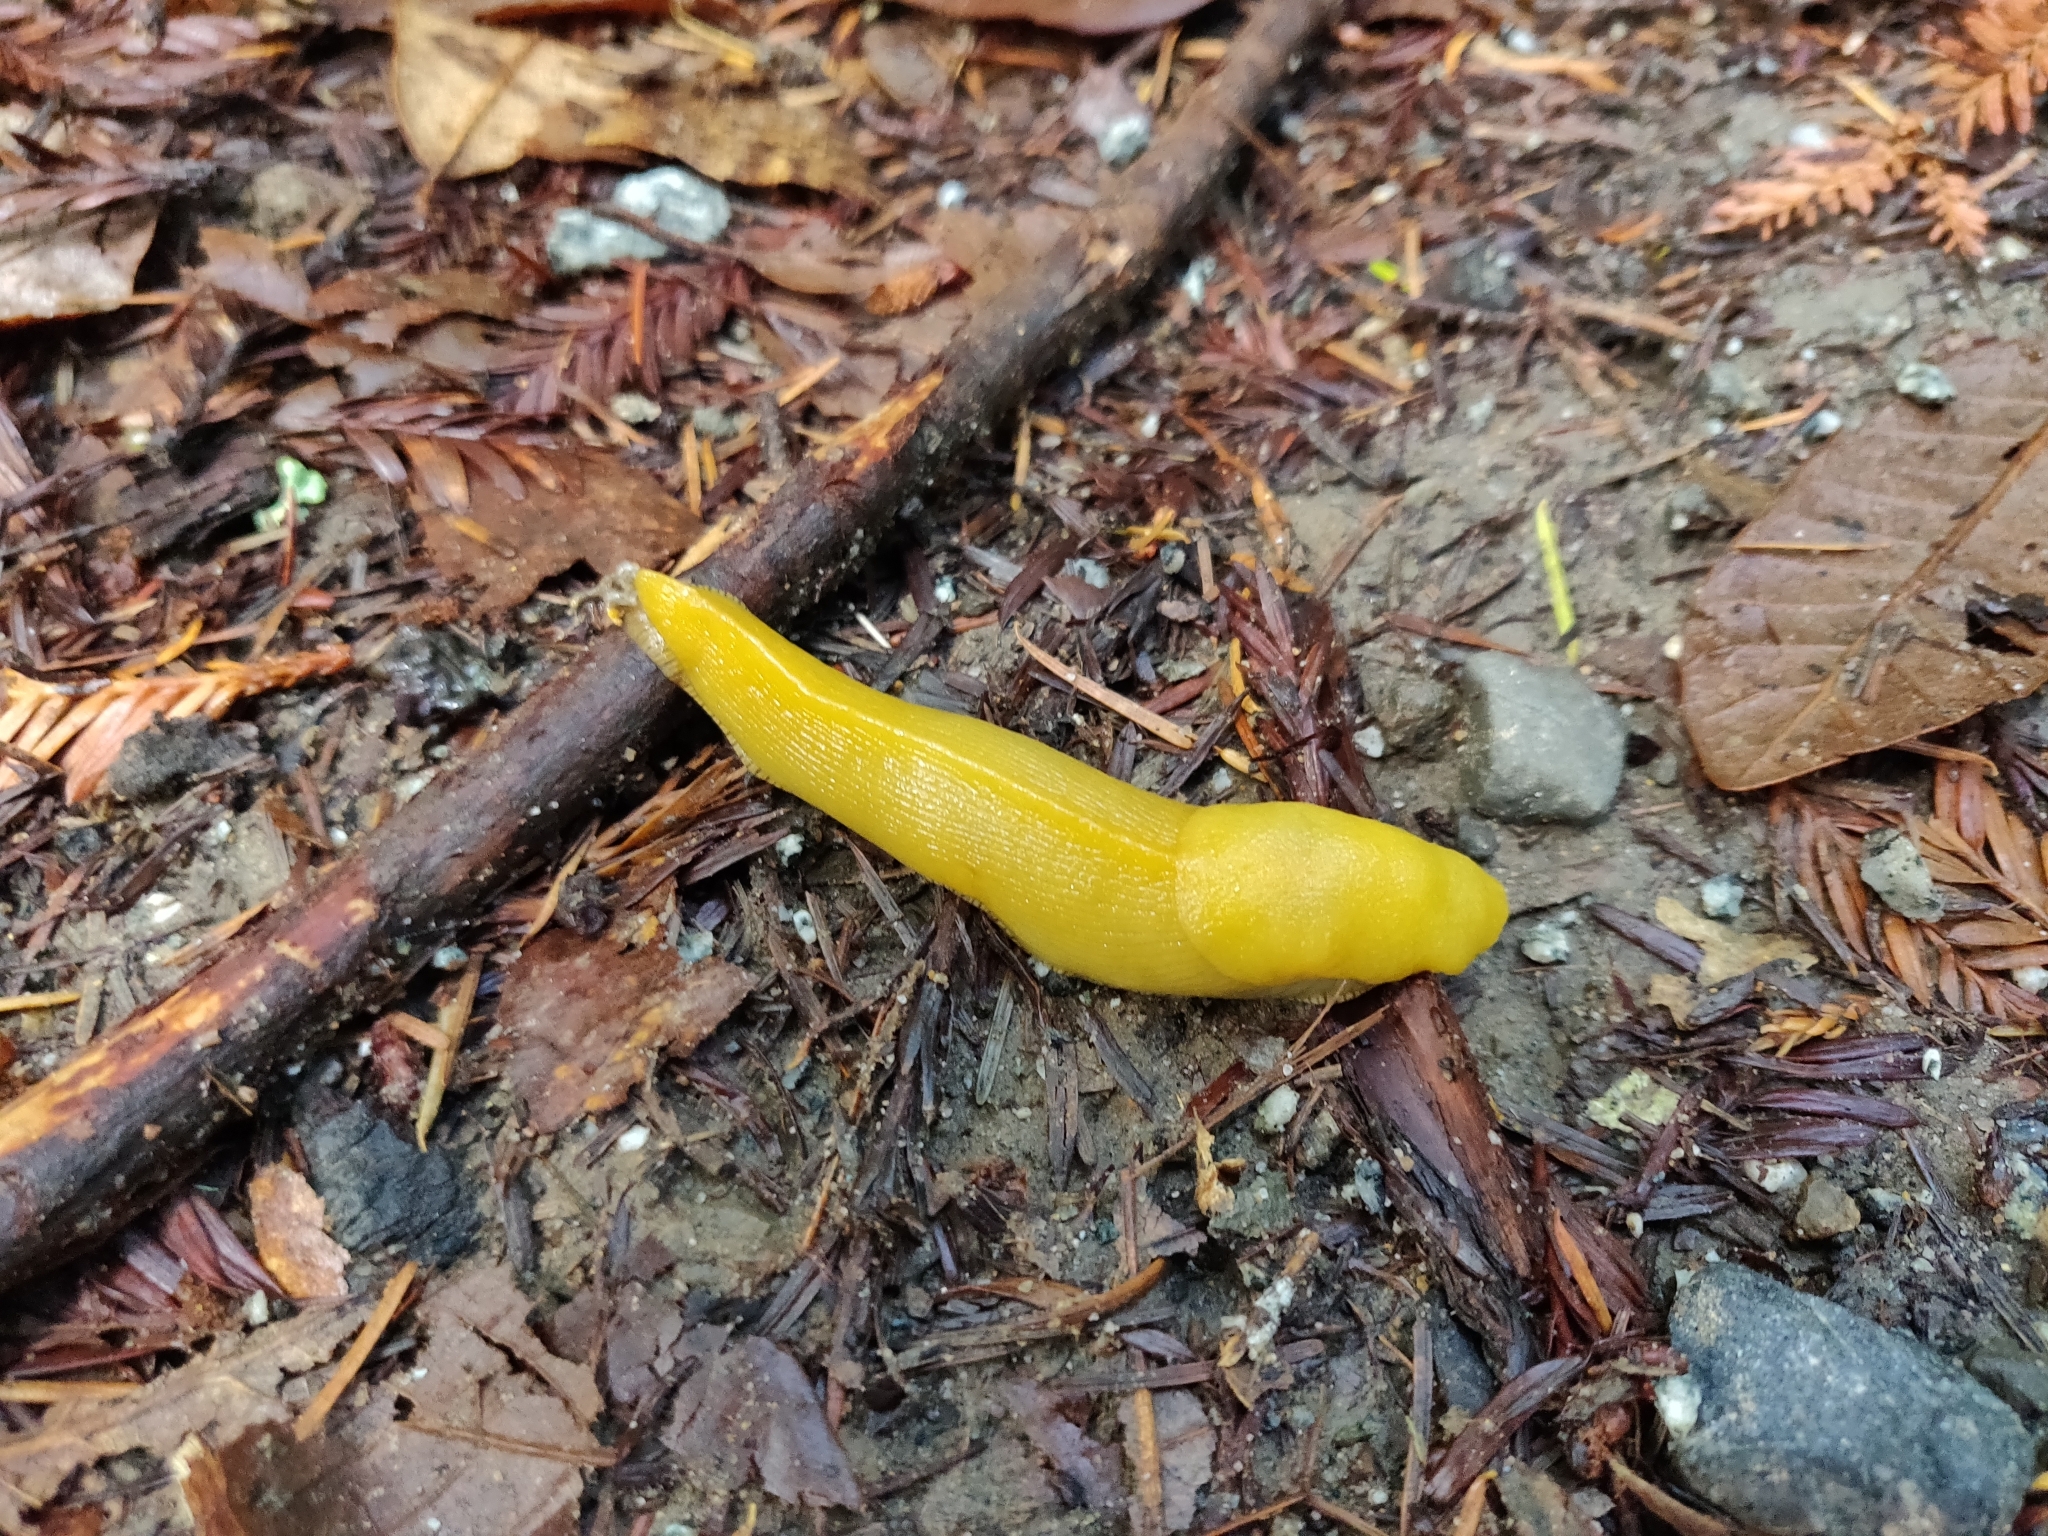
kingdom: Animalia
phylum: Mollusca
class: Gastropoda
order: Stylommatophora
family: Ariolimacidae
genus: Ariolimax
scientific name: Ariolimax californicus
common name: California banana slug
